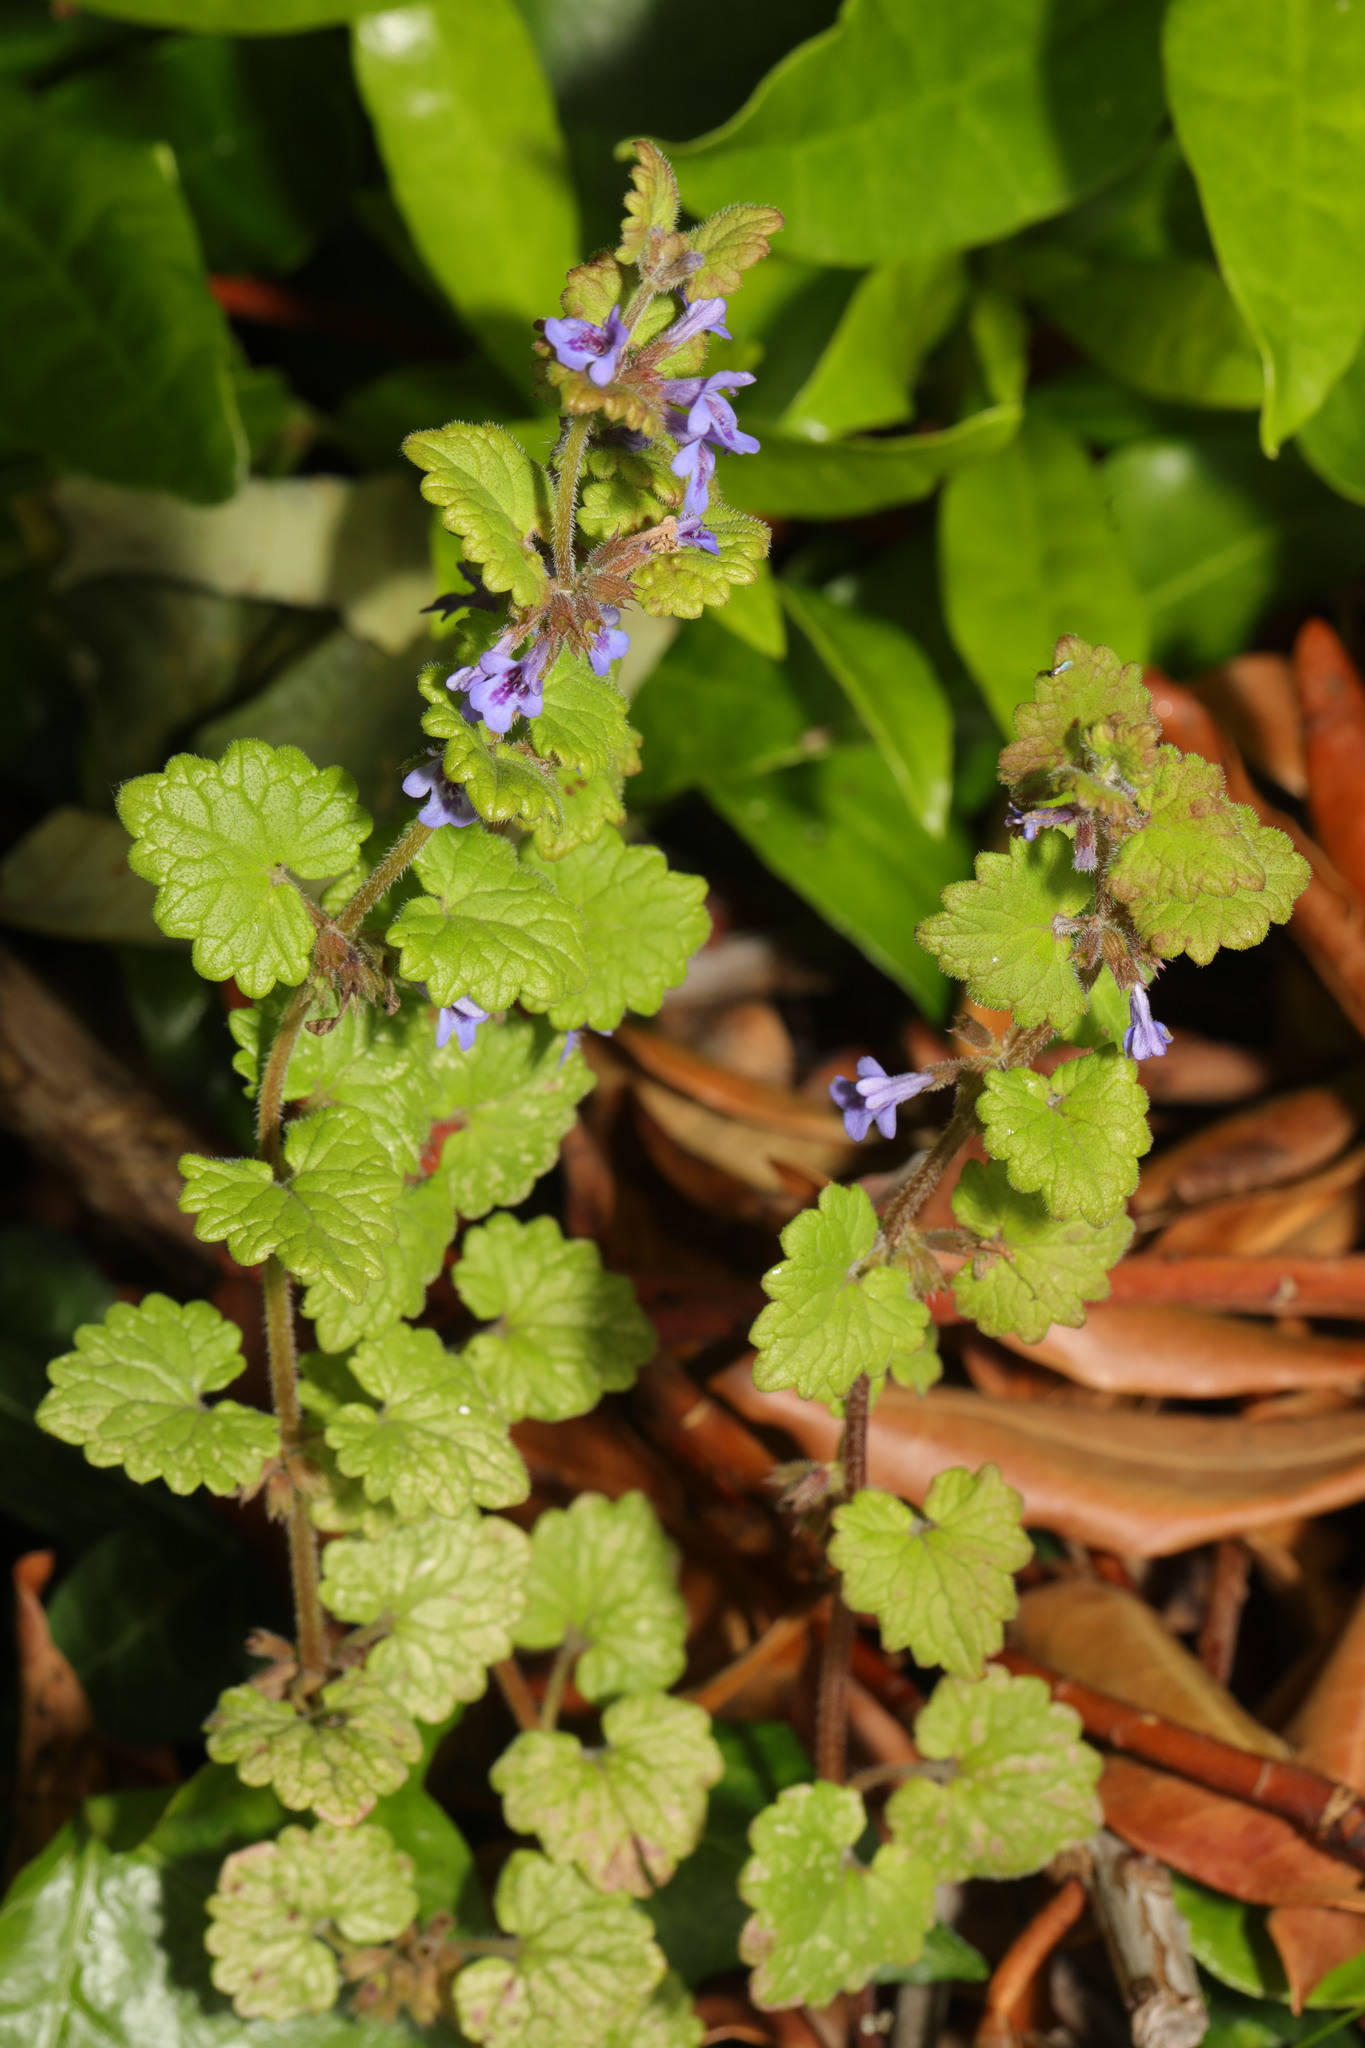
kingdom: Plantae
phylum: Tracheophyta
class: Magnoliopsida
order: Lamiales
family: Lamiaceae
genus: Glechoma
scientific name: Glechoma hederacea
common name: Ground ivy
